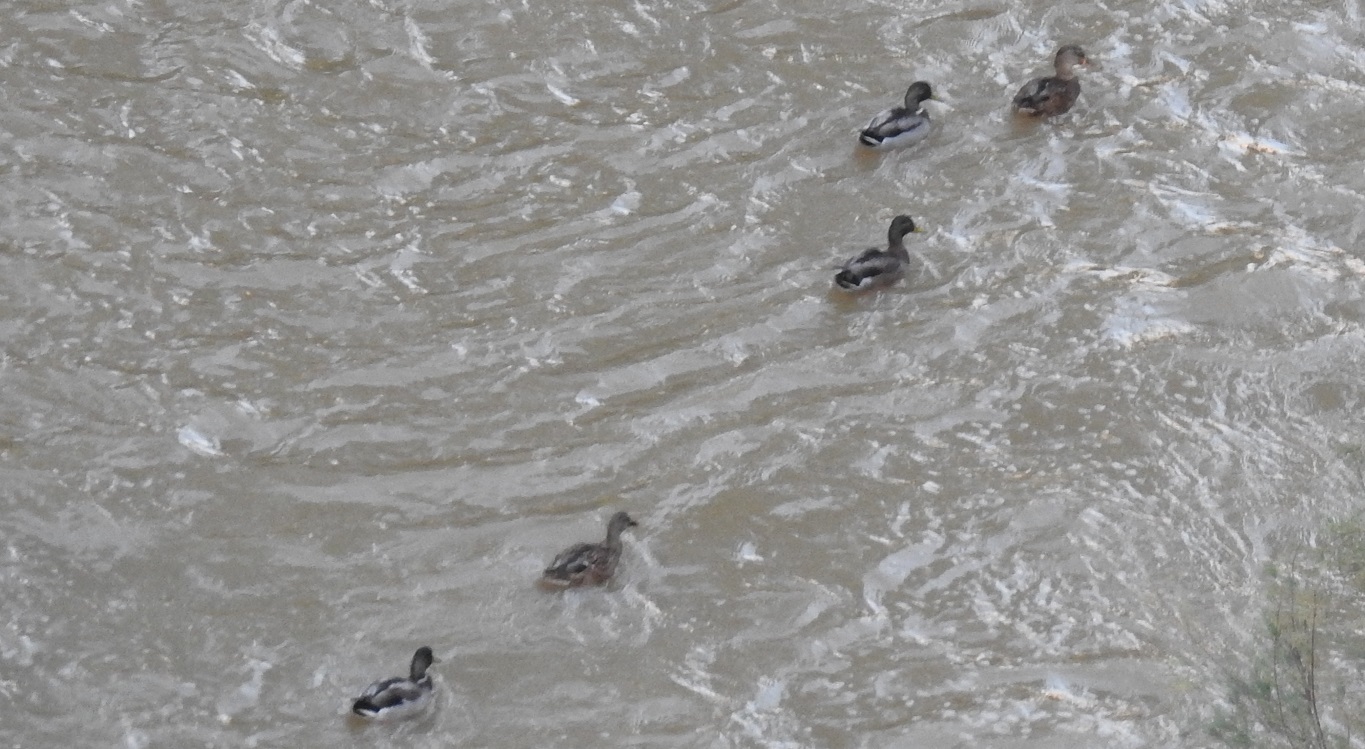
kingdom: Animalia
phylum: Chordata
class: Aves
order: Anseriformes
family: Anatidae
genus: Anas
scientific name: Anas platyrhynchos
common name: Mallard
